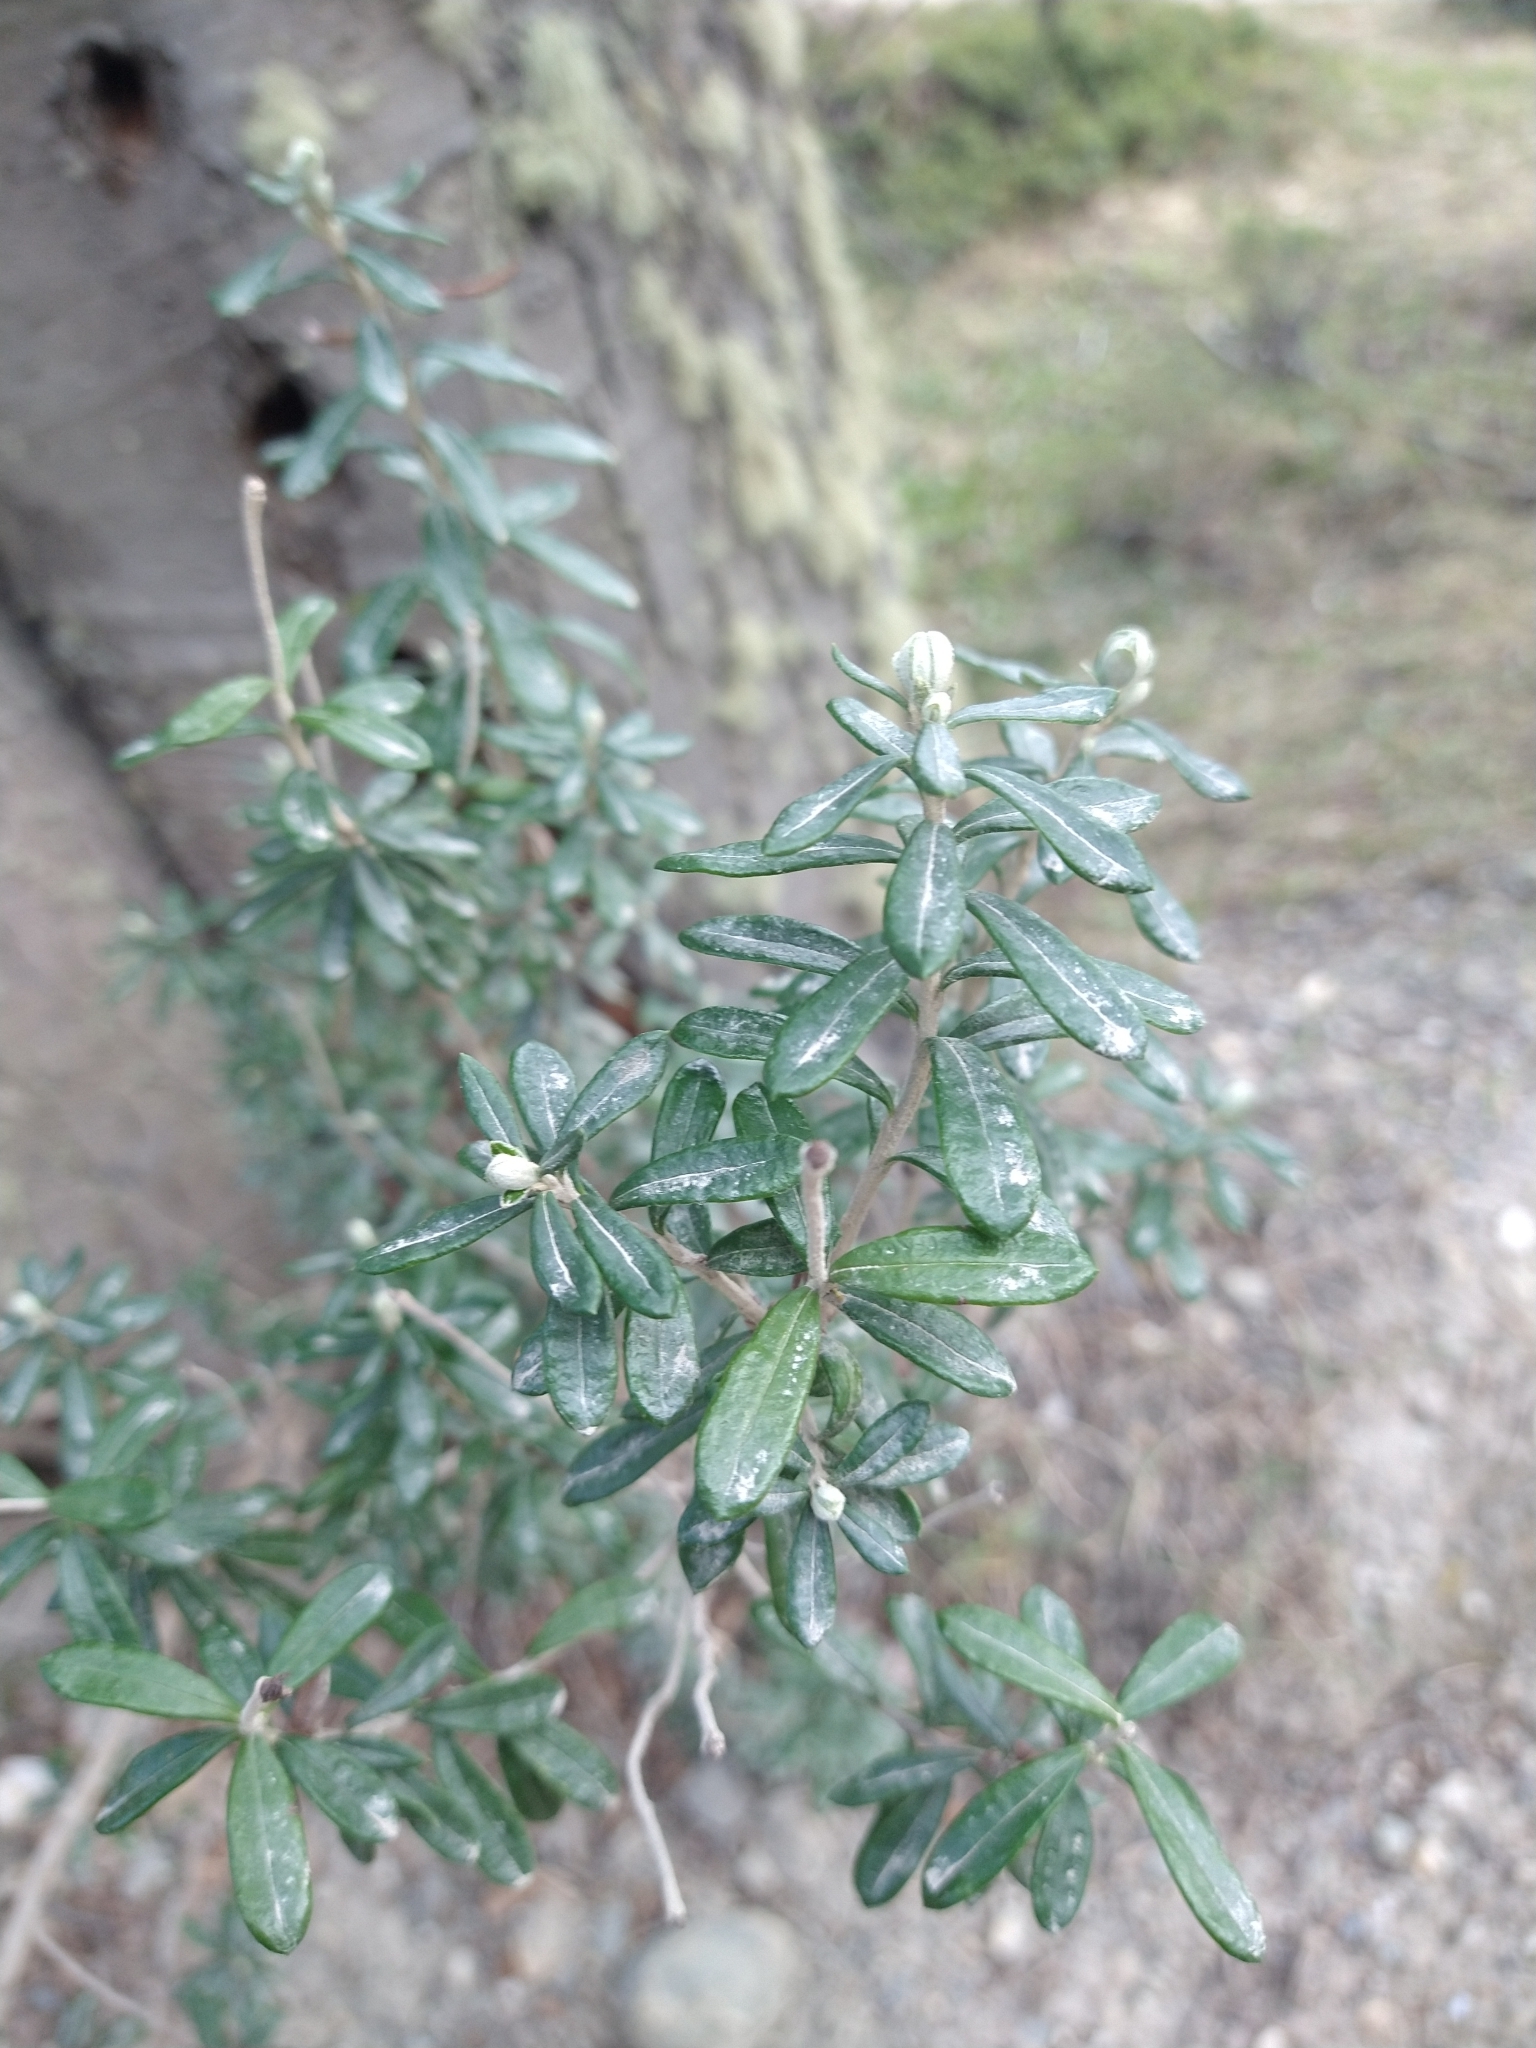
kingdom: Plantae
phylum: Tracheophyta
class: Magnoliopsida
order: Asterales
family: Asteraceae
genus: Chiliotrichum
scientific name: Chiliotrichum diffusum
